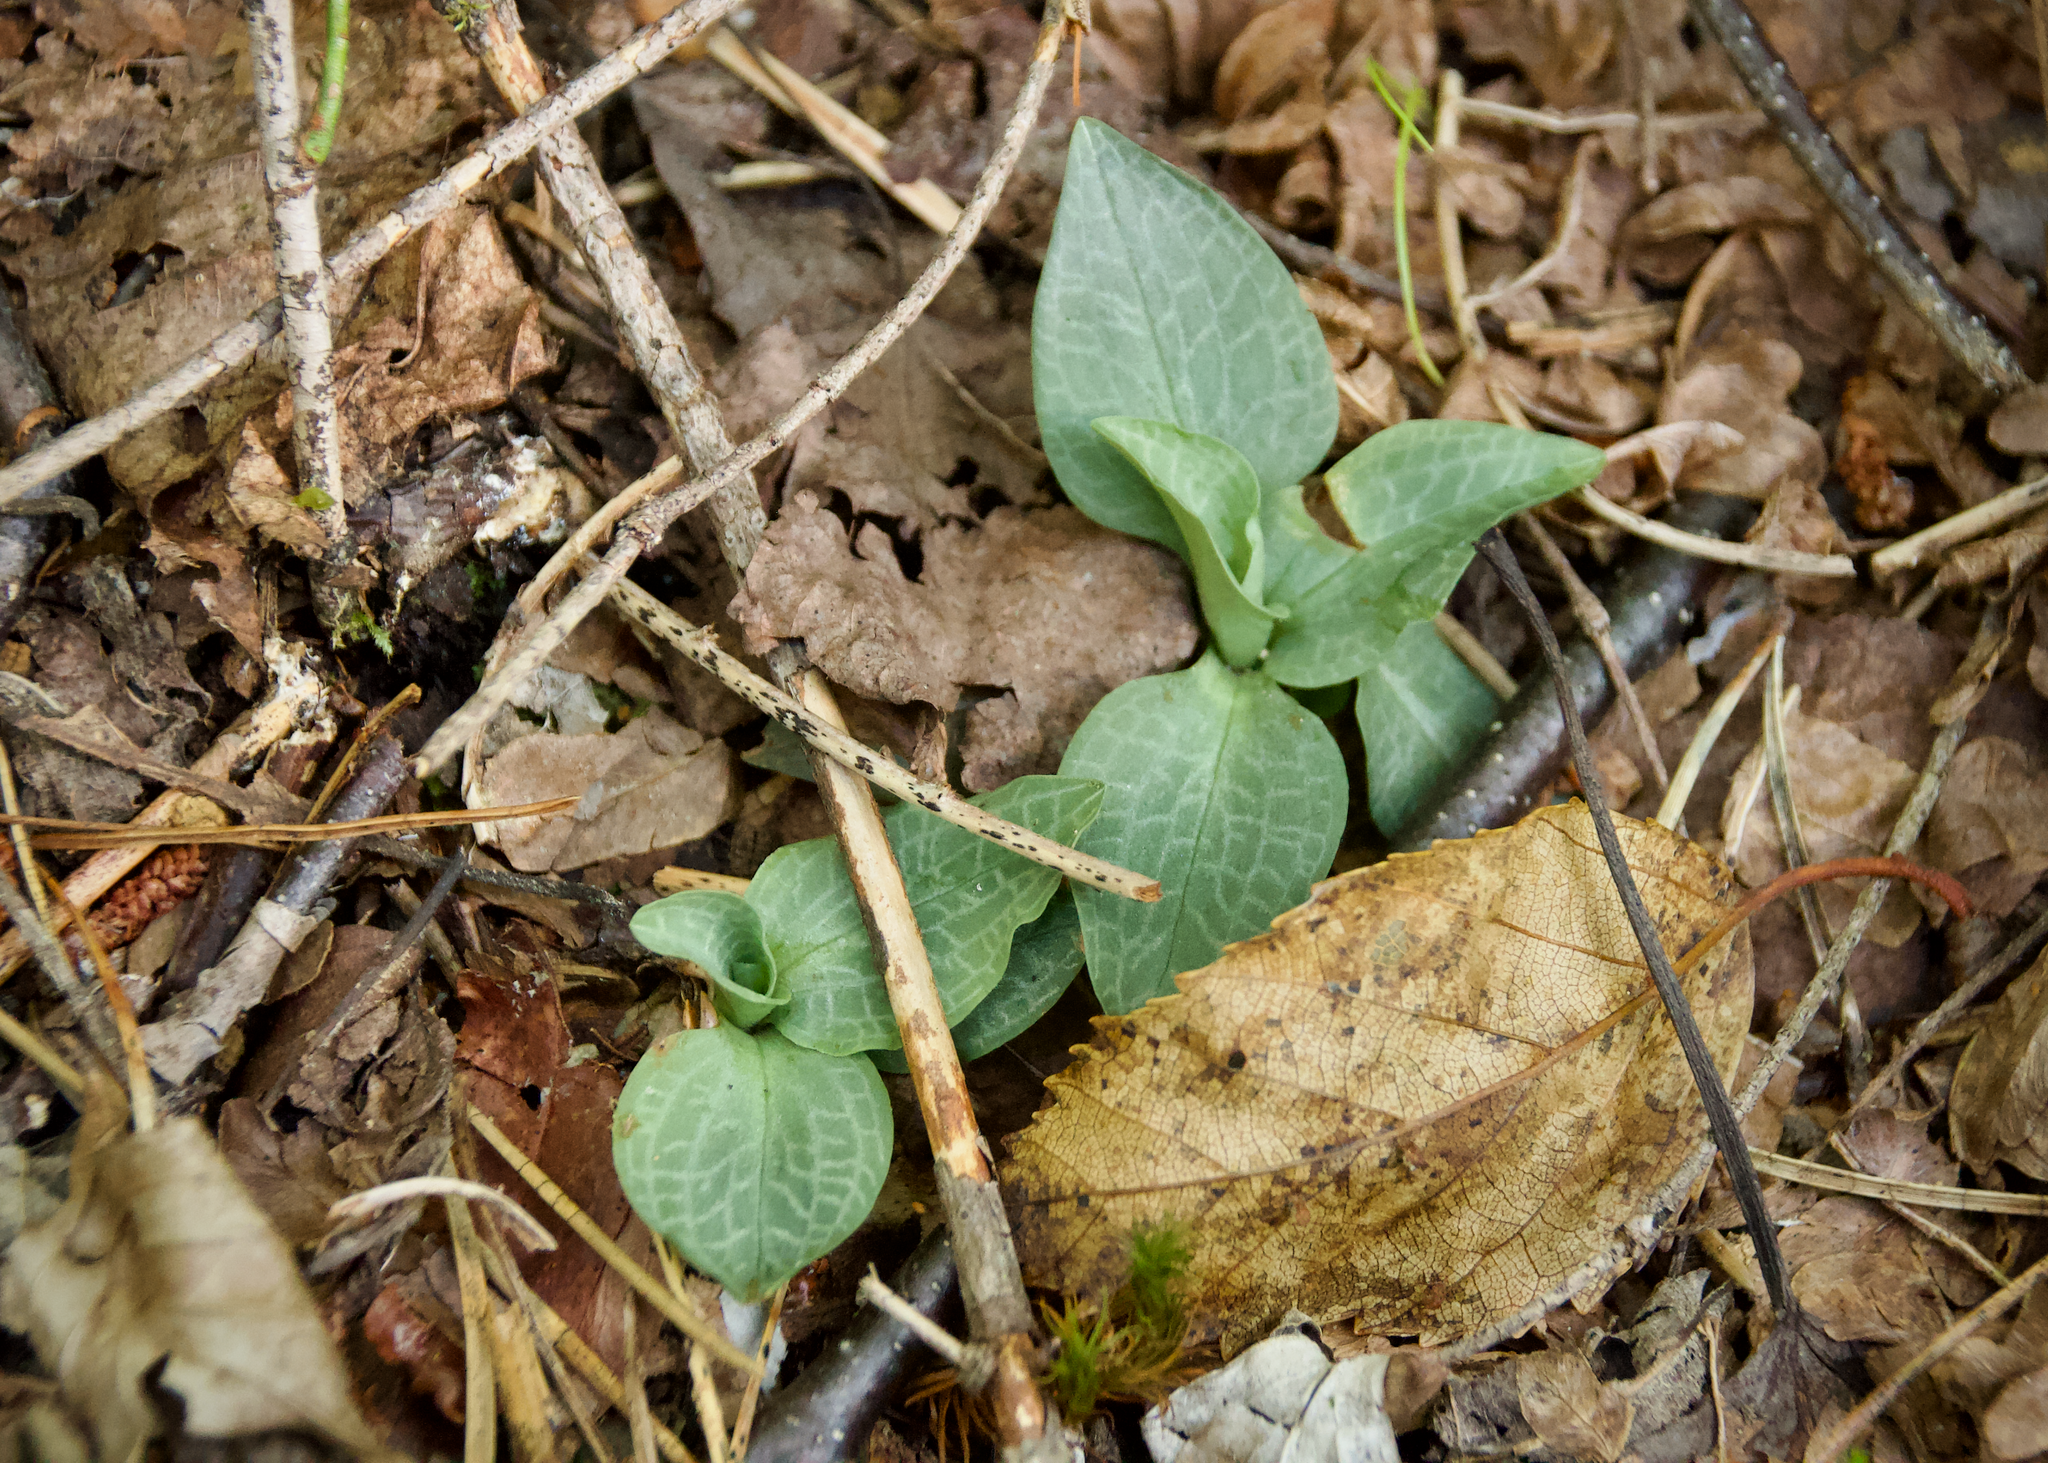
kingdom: Plantae
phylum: Tracheophyta
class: Liliopsida
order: Asparagales
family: Orchidaceae
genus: Goodyera
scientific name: Goodyera tesselata
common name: Checkered rattlesnake-plantain
